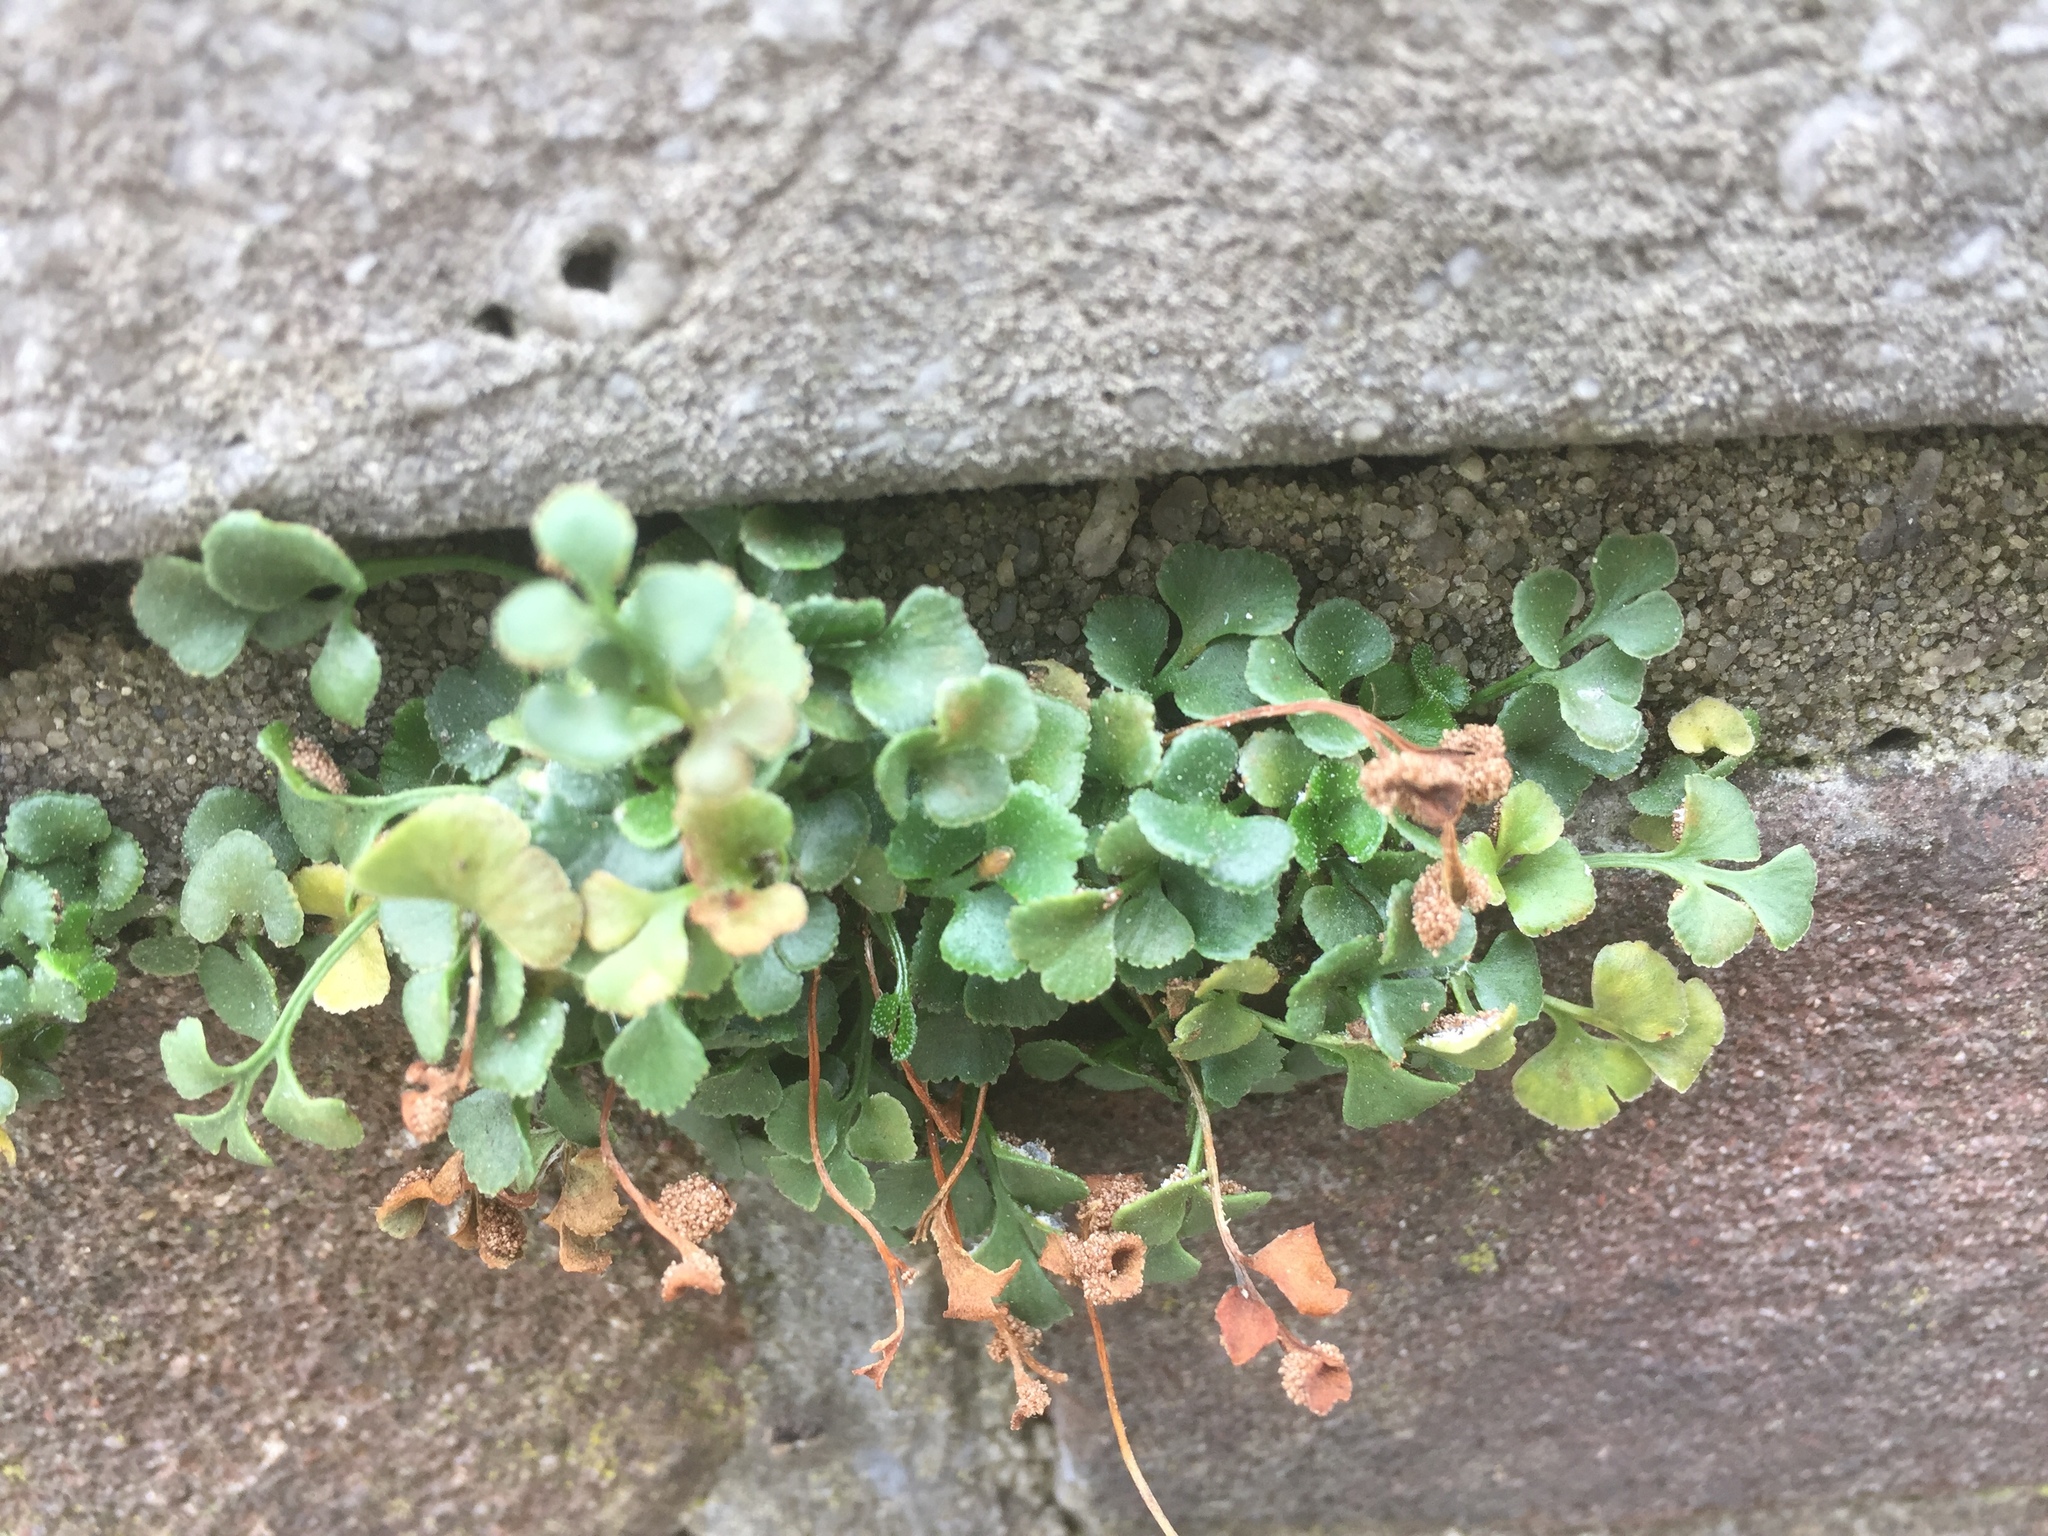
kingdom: Plantae
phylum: Tracheophyta
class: Polypodiopsida
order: Polypodiales
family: Aspleniaceae
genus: Asplenium
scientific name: Asplenium ruta-muraria
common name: Wall-rue
